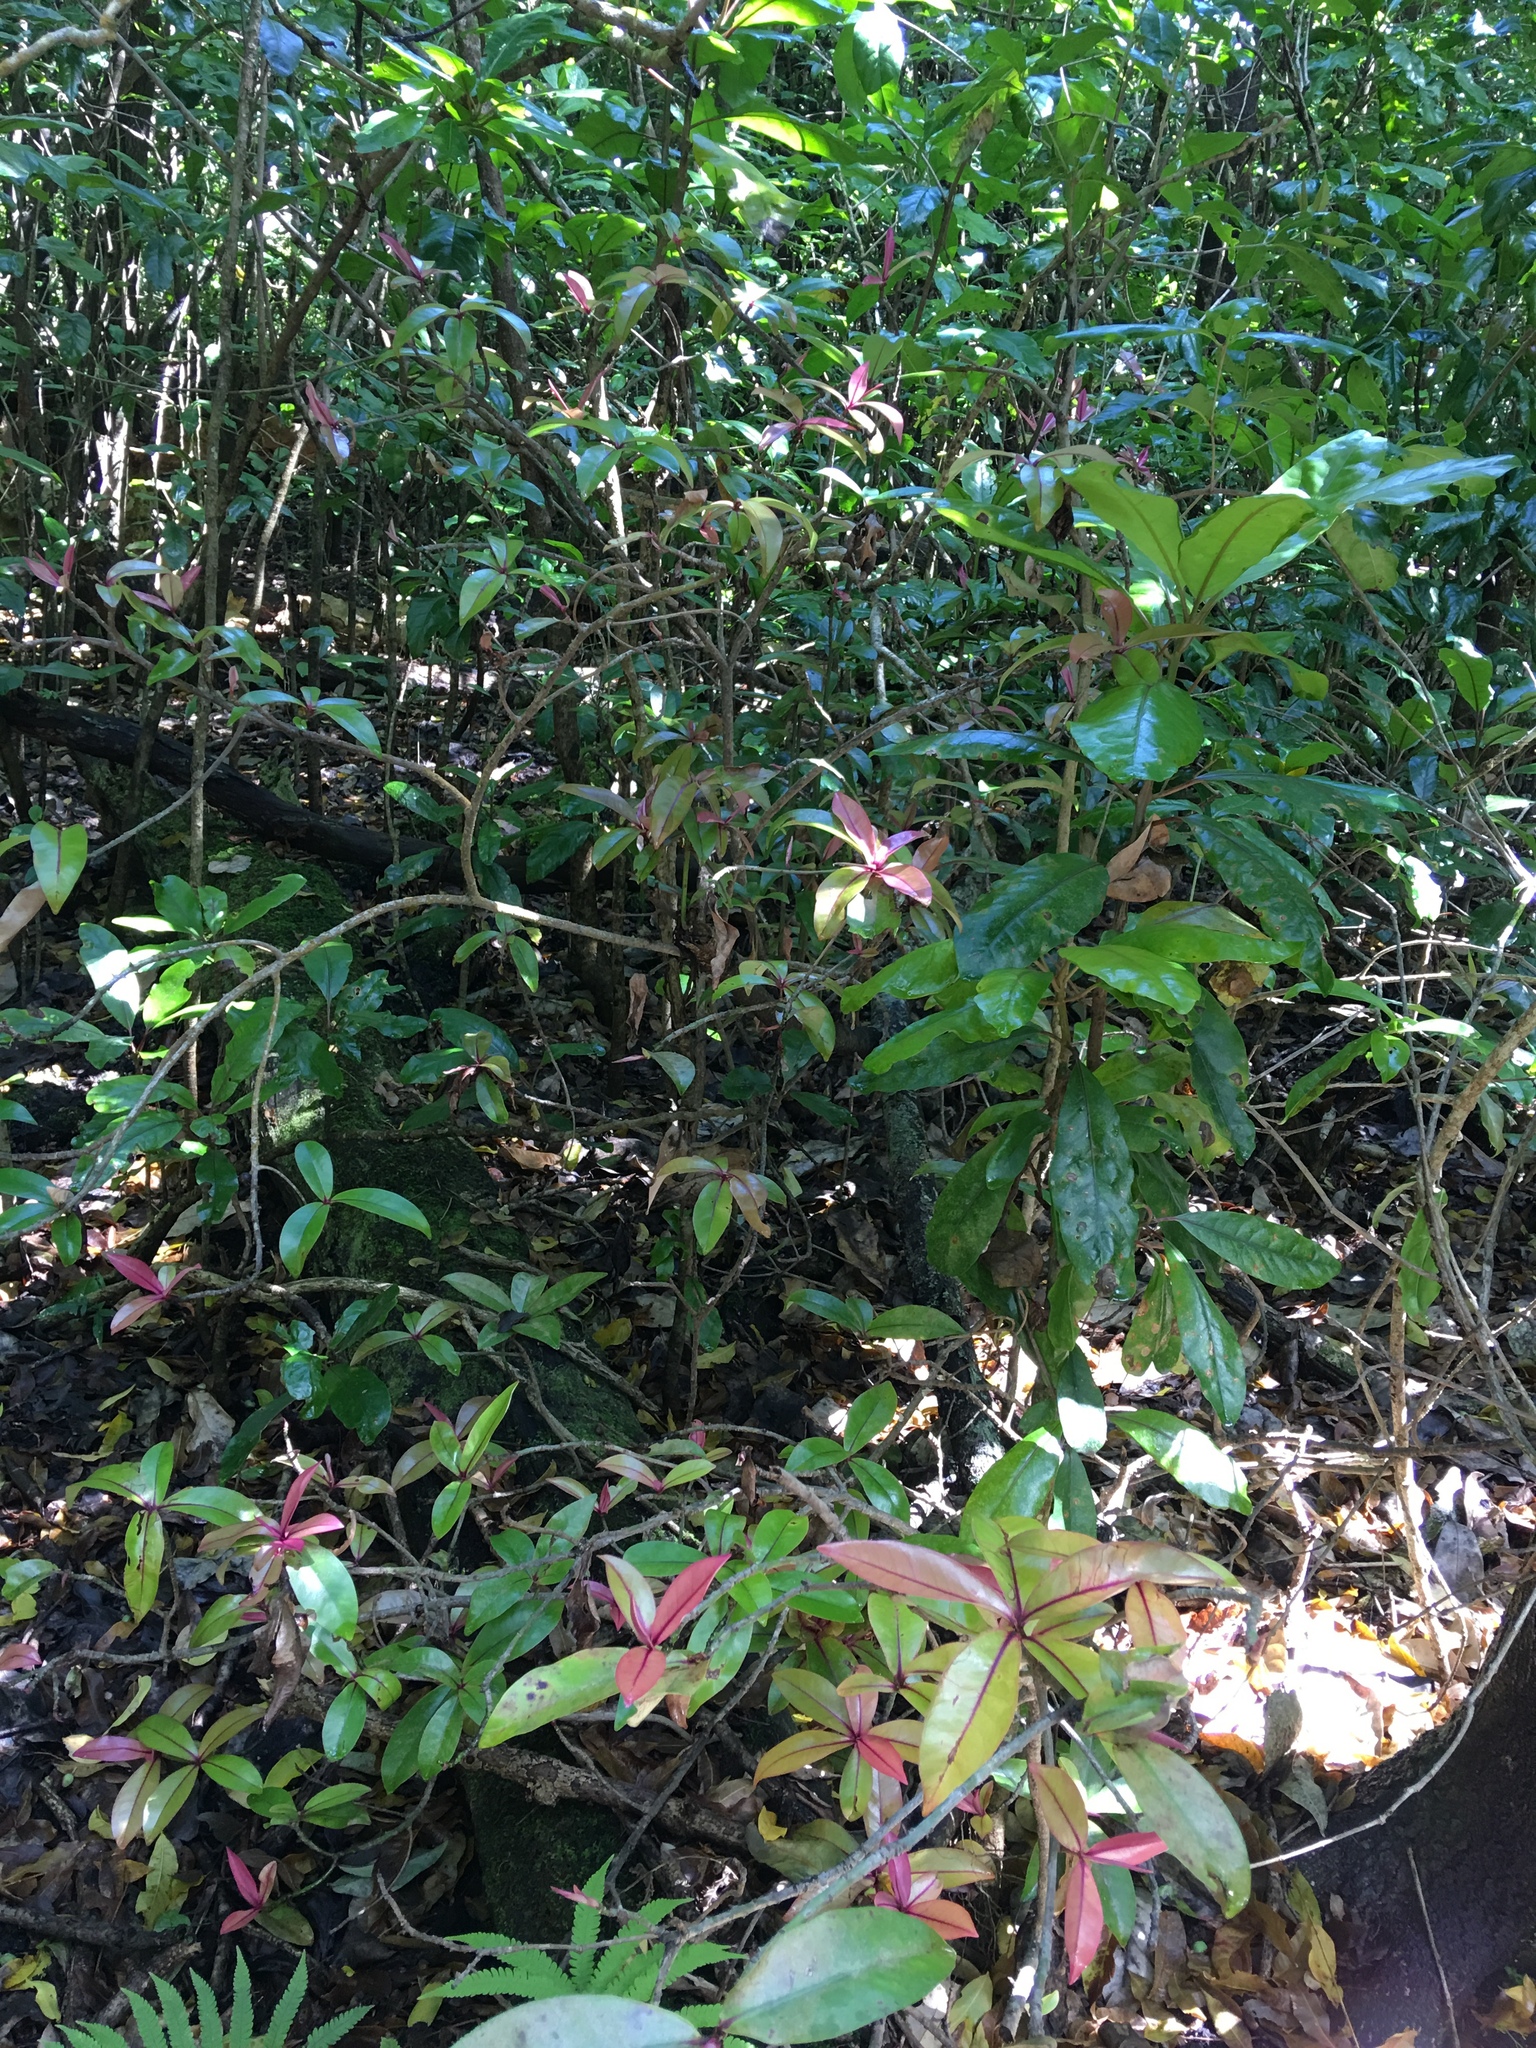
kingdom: Plantae
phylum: Tracheophyta
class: Magnoliopsida
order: Ericales
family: Primulaceae
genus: Myrsine
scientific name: Myrsine lessertiana
